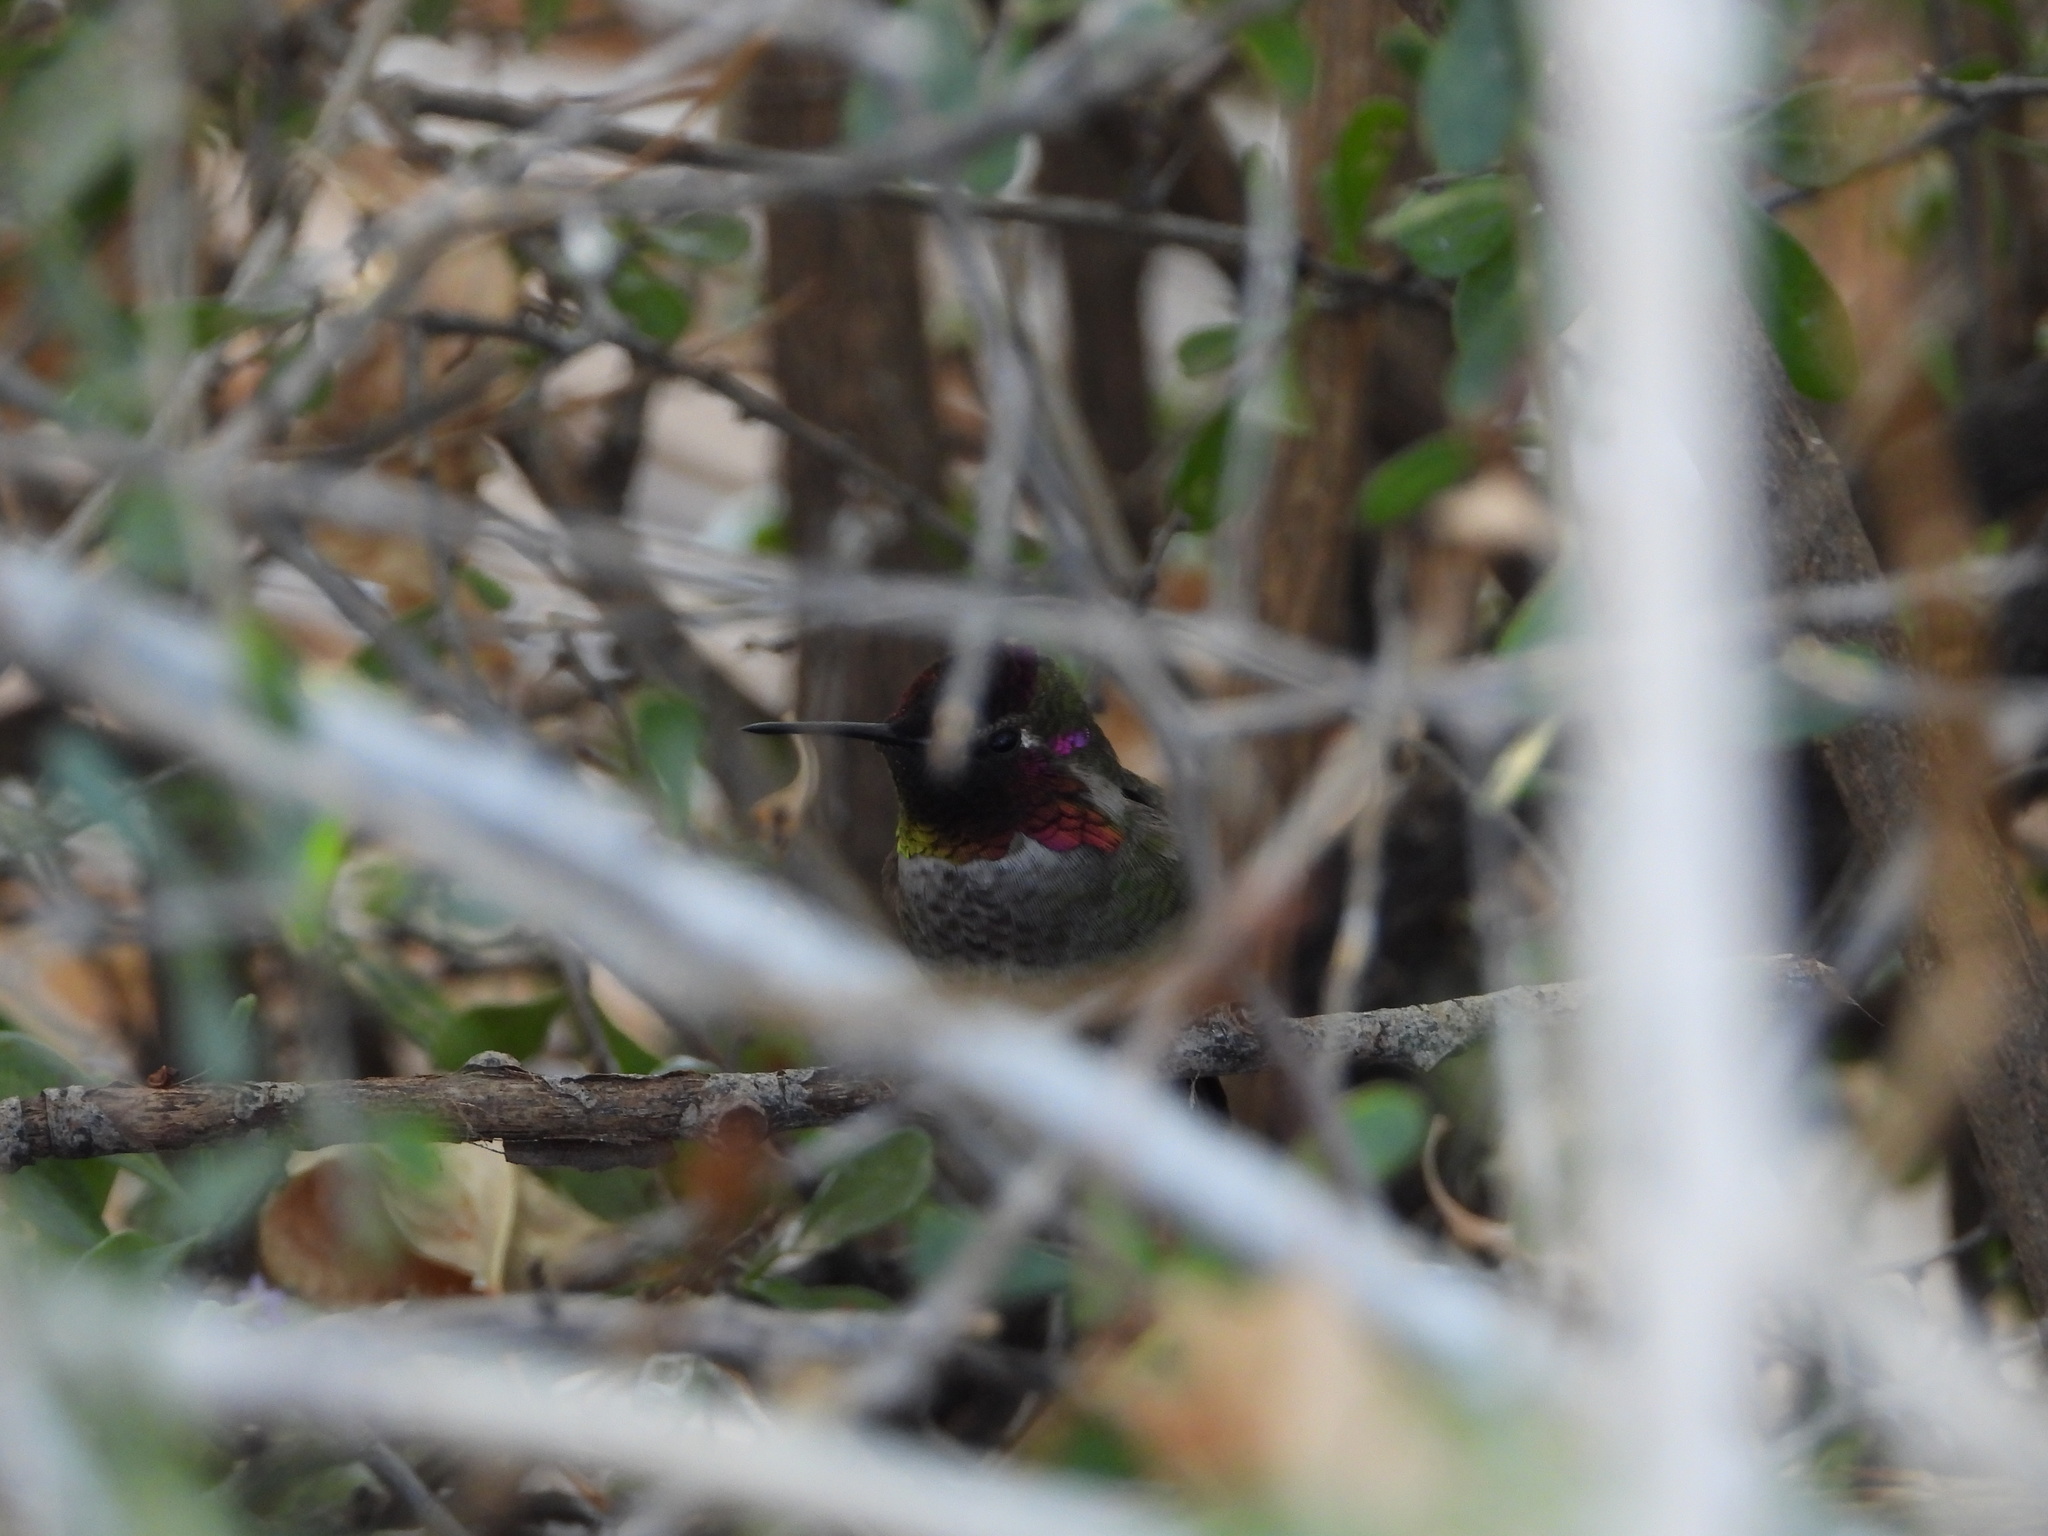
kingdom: Animalia
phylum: Chordata
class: Aves
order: Apodiformes
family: Trochilidae
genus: Calypte
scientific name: Calypte anna
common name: Anna's hummingbird
